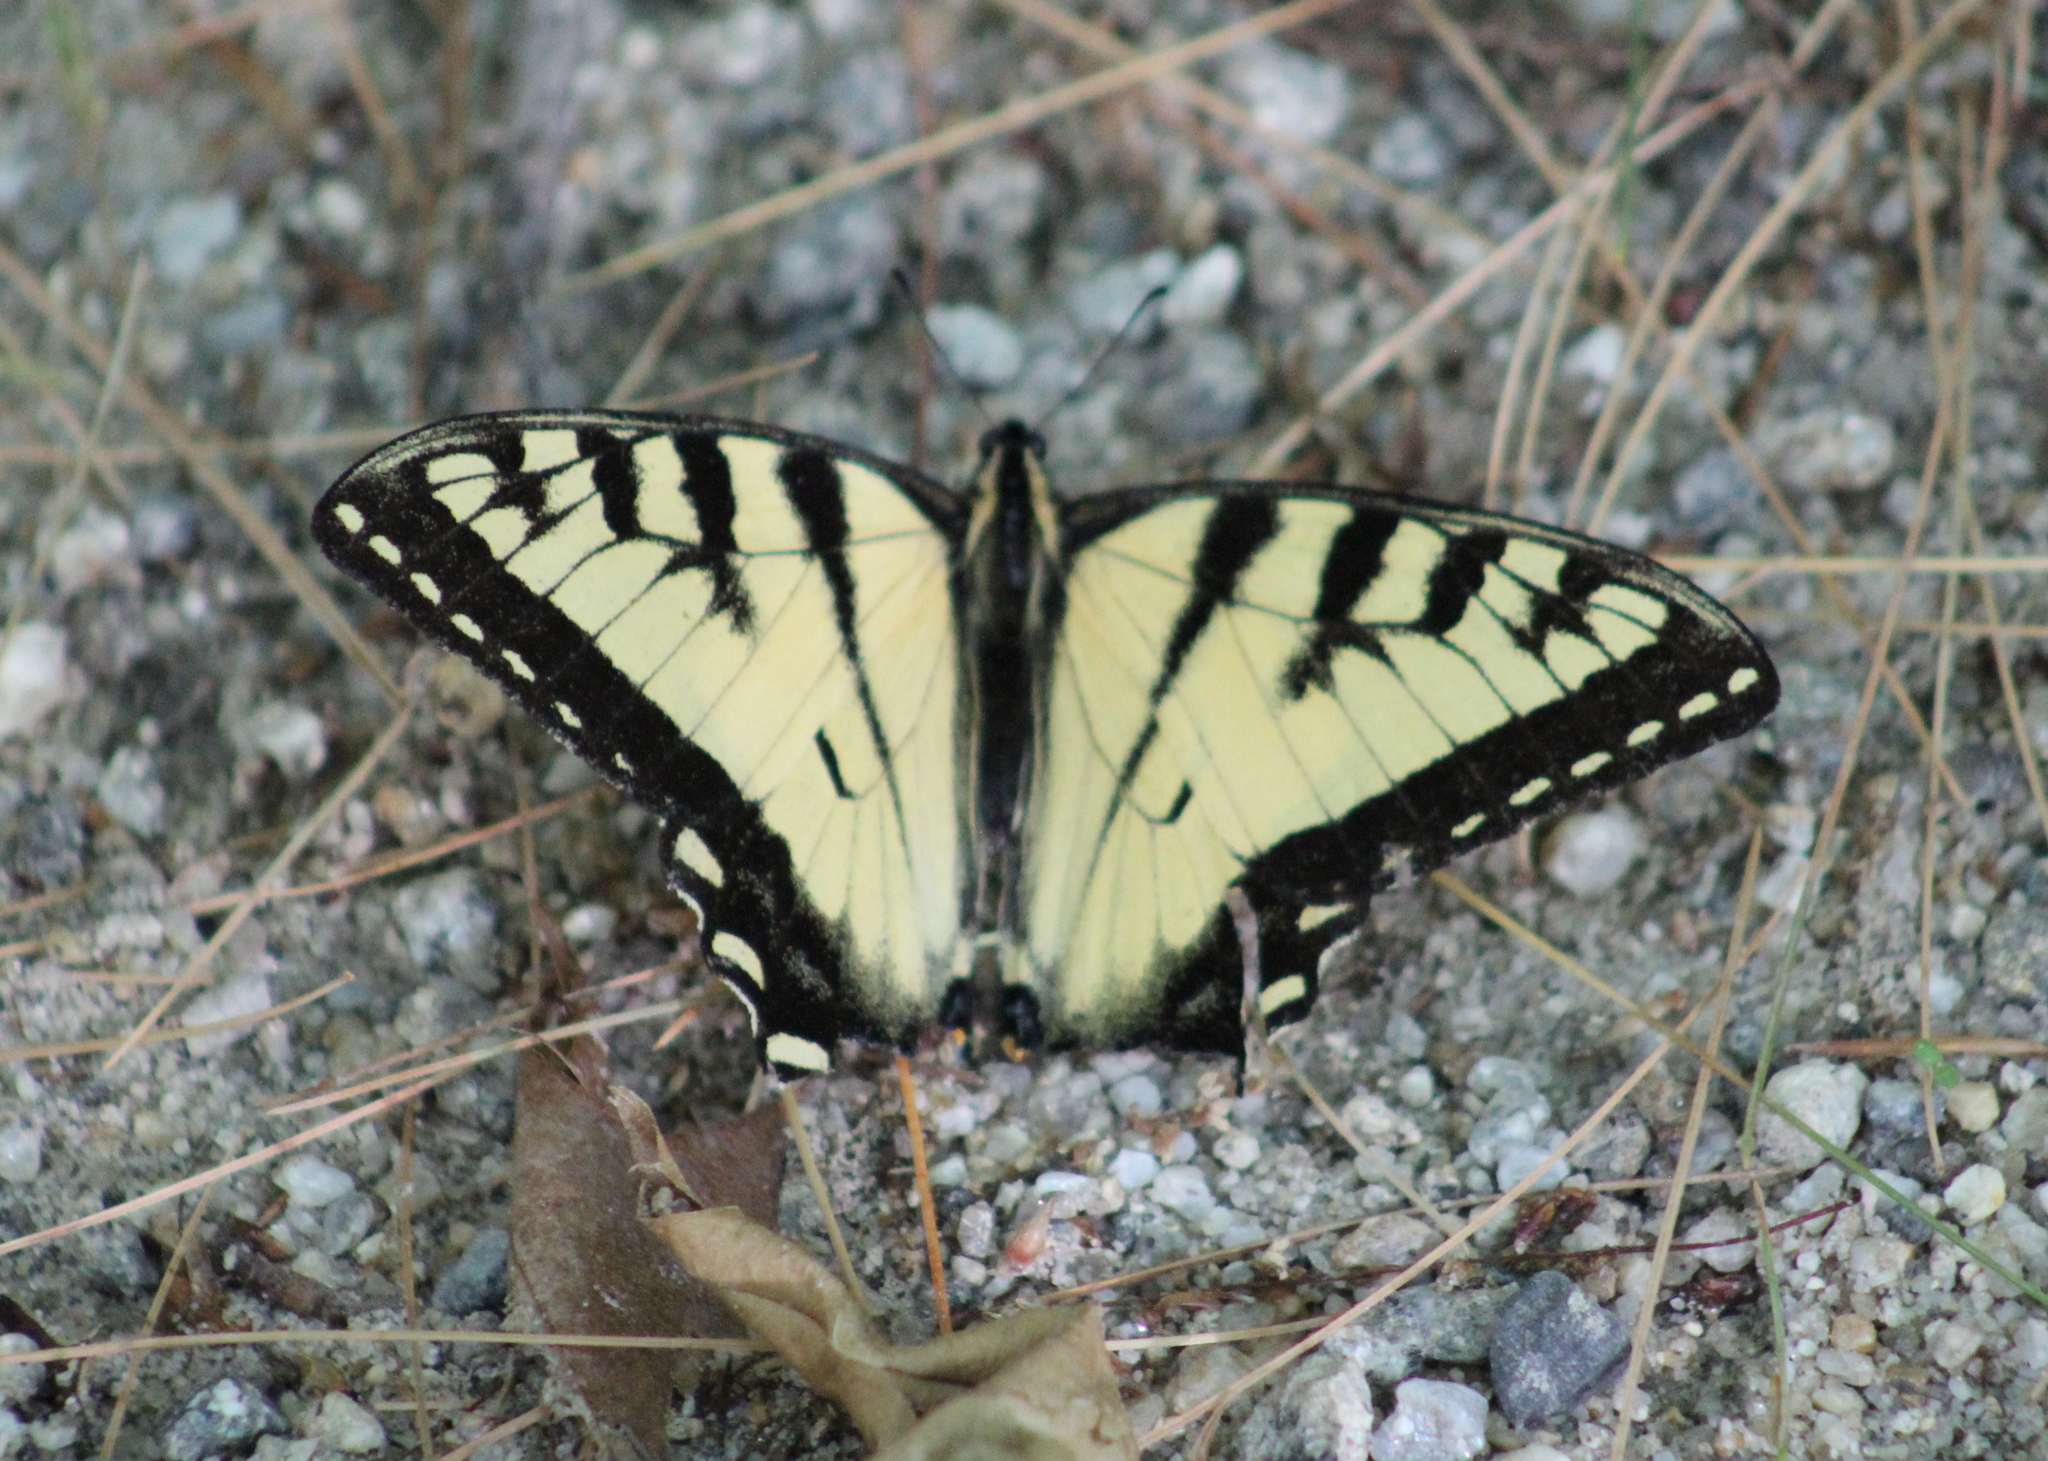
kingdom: Animalia
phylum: Arthropoda
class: Insecta
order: Lepidoptera
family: Papilionidae
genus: Papilio
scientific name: Papilio canadensis
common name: Canadian tiger swallowtail
